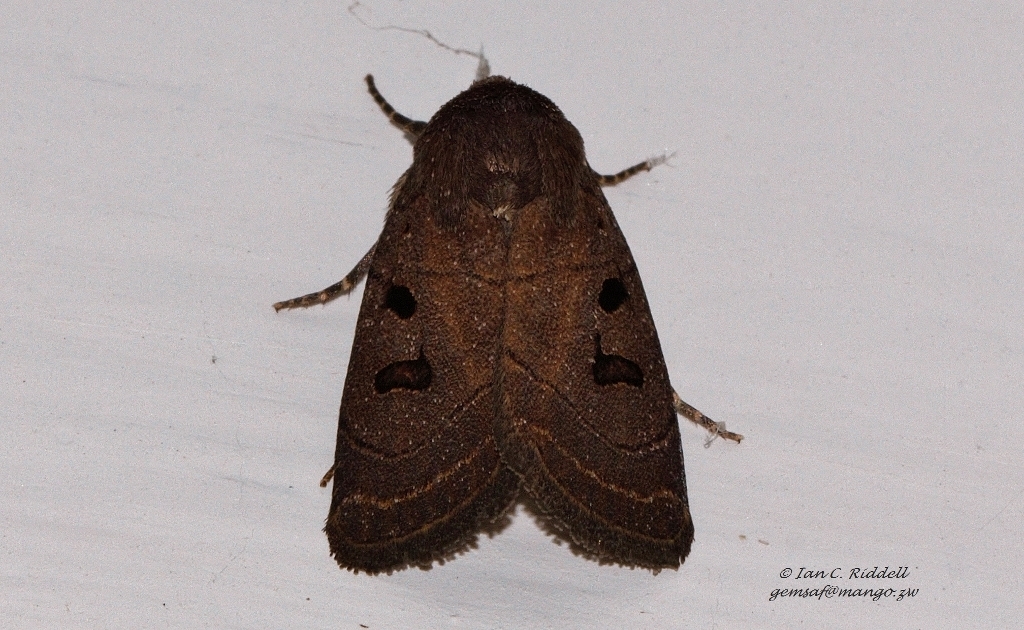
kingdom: Animalia
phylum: Arthropoda
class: Insecta
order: Lepidoptera
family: Noctuidae
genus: Athetis
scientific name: Athetis melanosema
